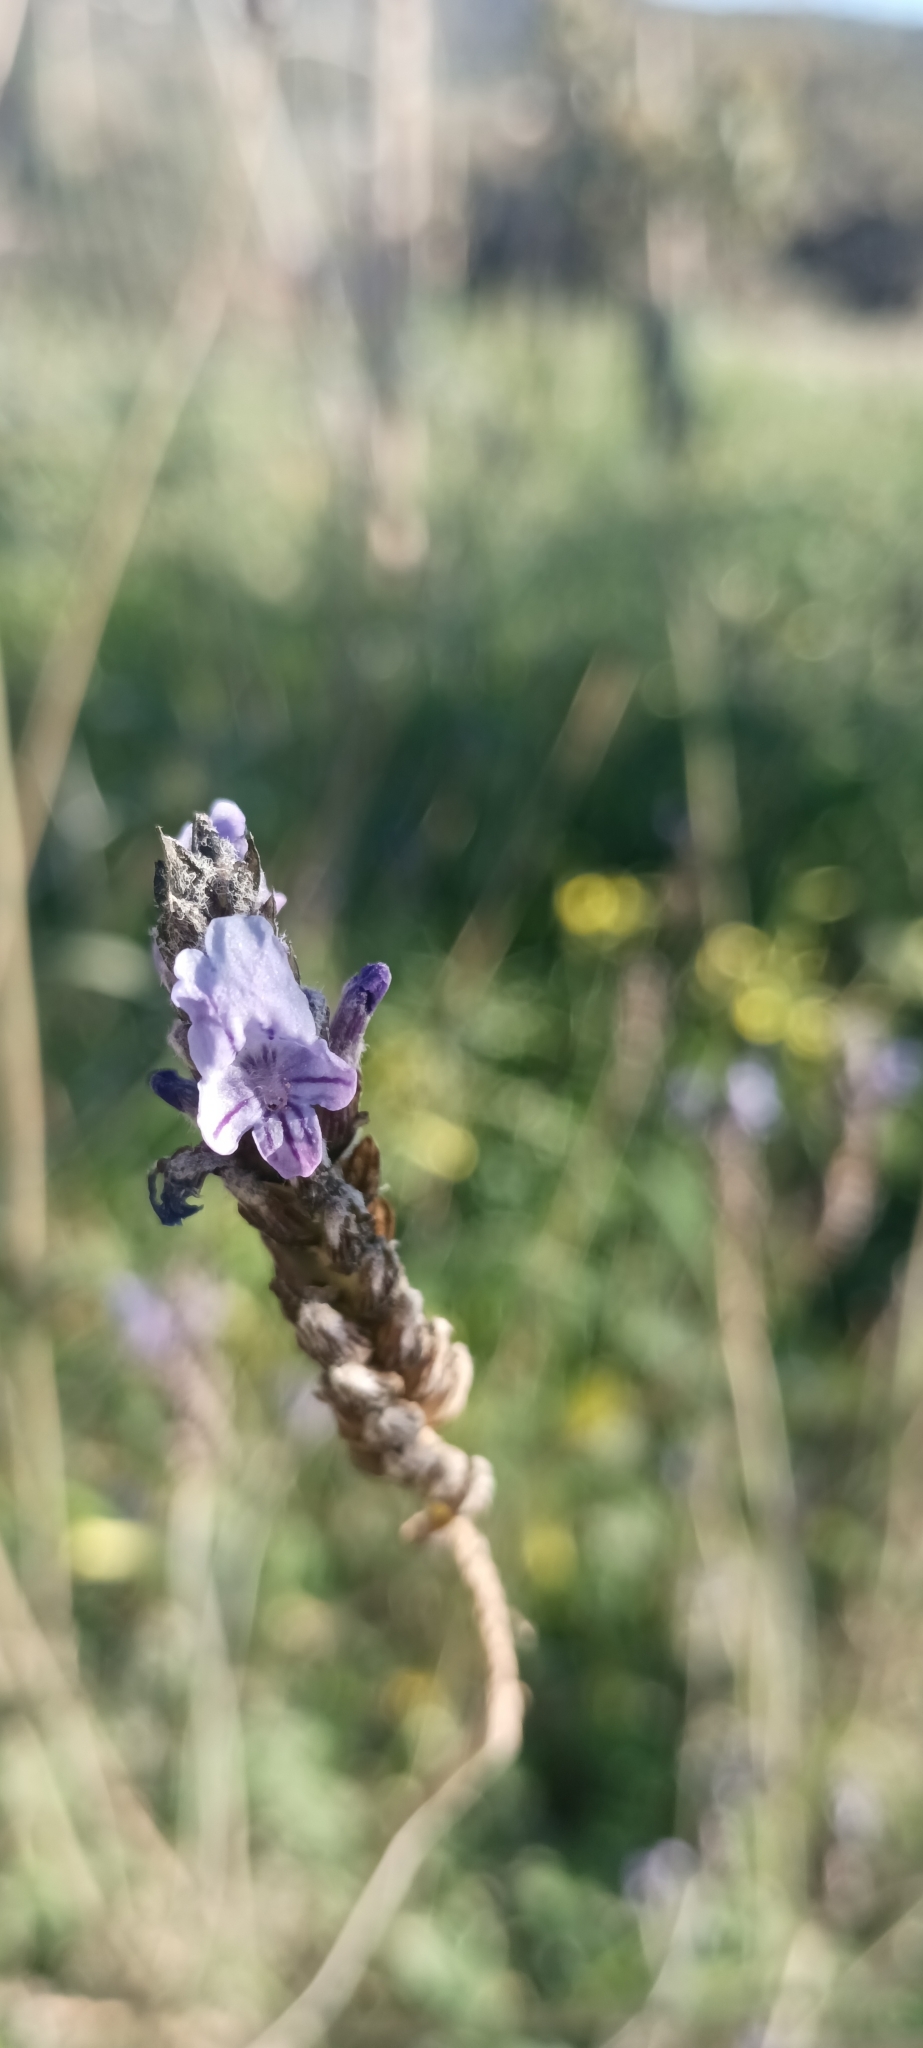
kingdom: Plantae
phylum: Tracheophyta
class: Magnoliopsida
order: Lamiales
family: Lamiaceae
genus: Lavandula
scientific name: Lavandula multifida
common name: Fern-leaf lavender
